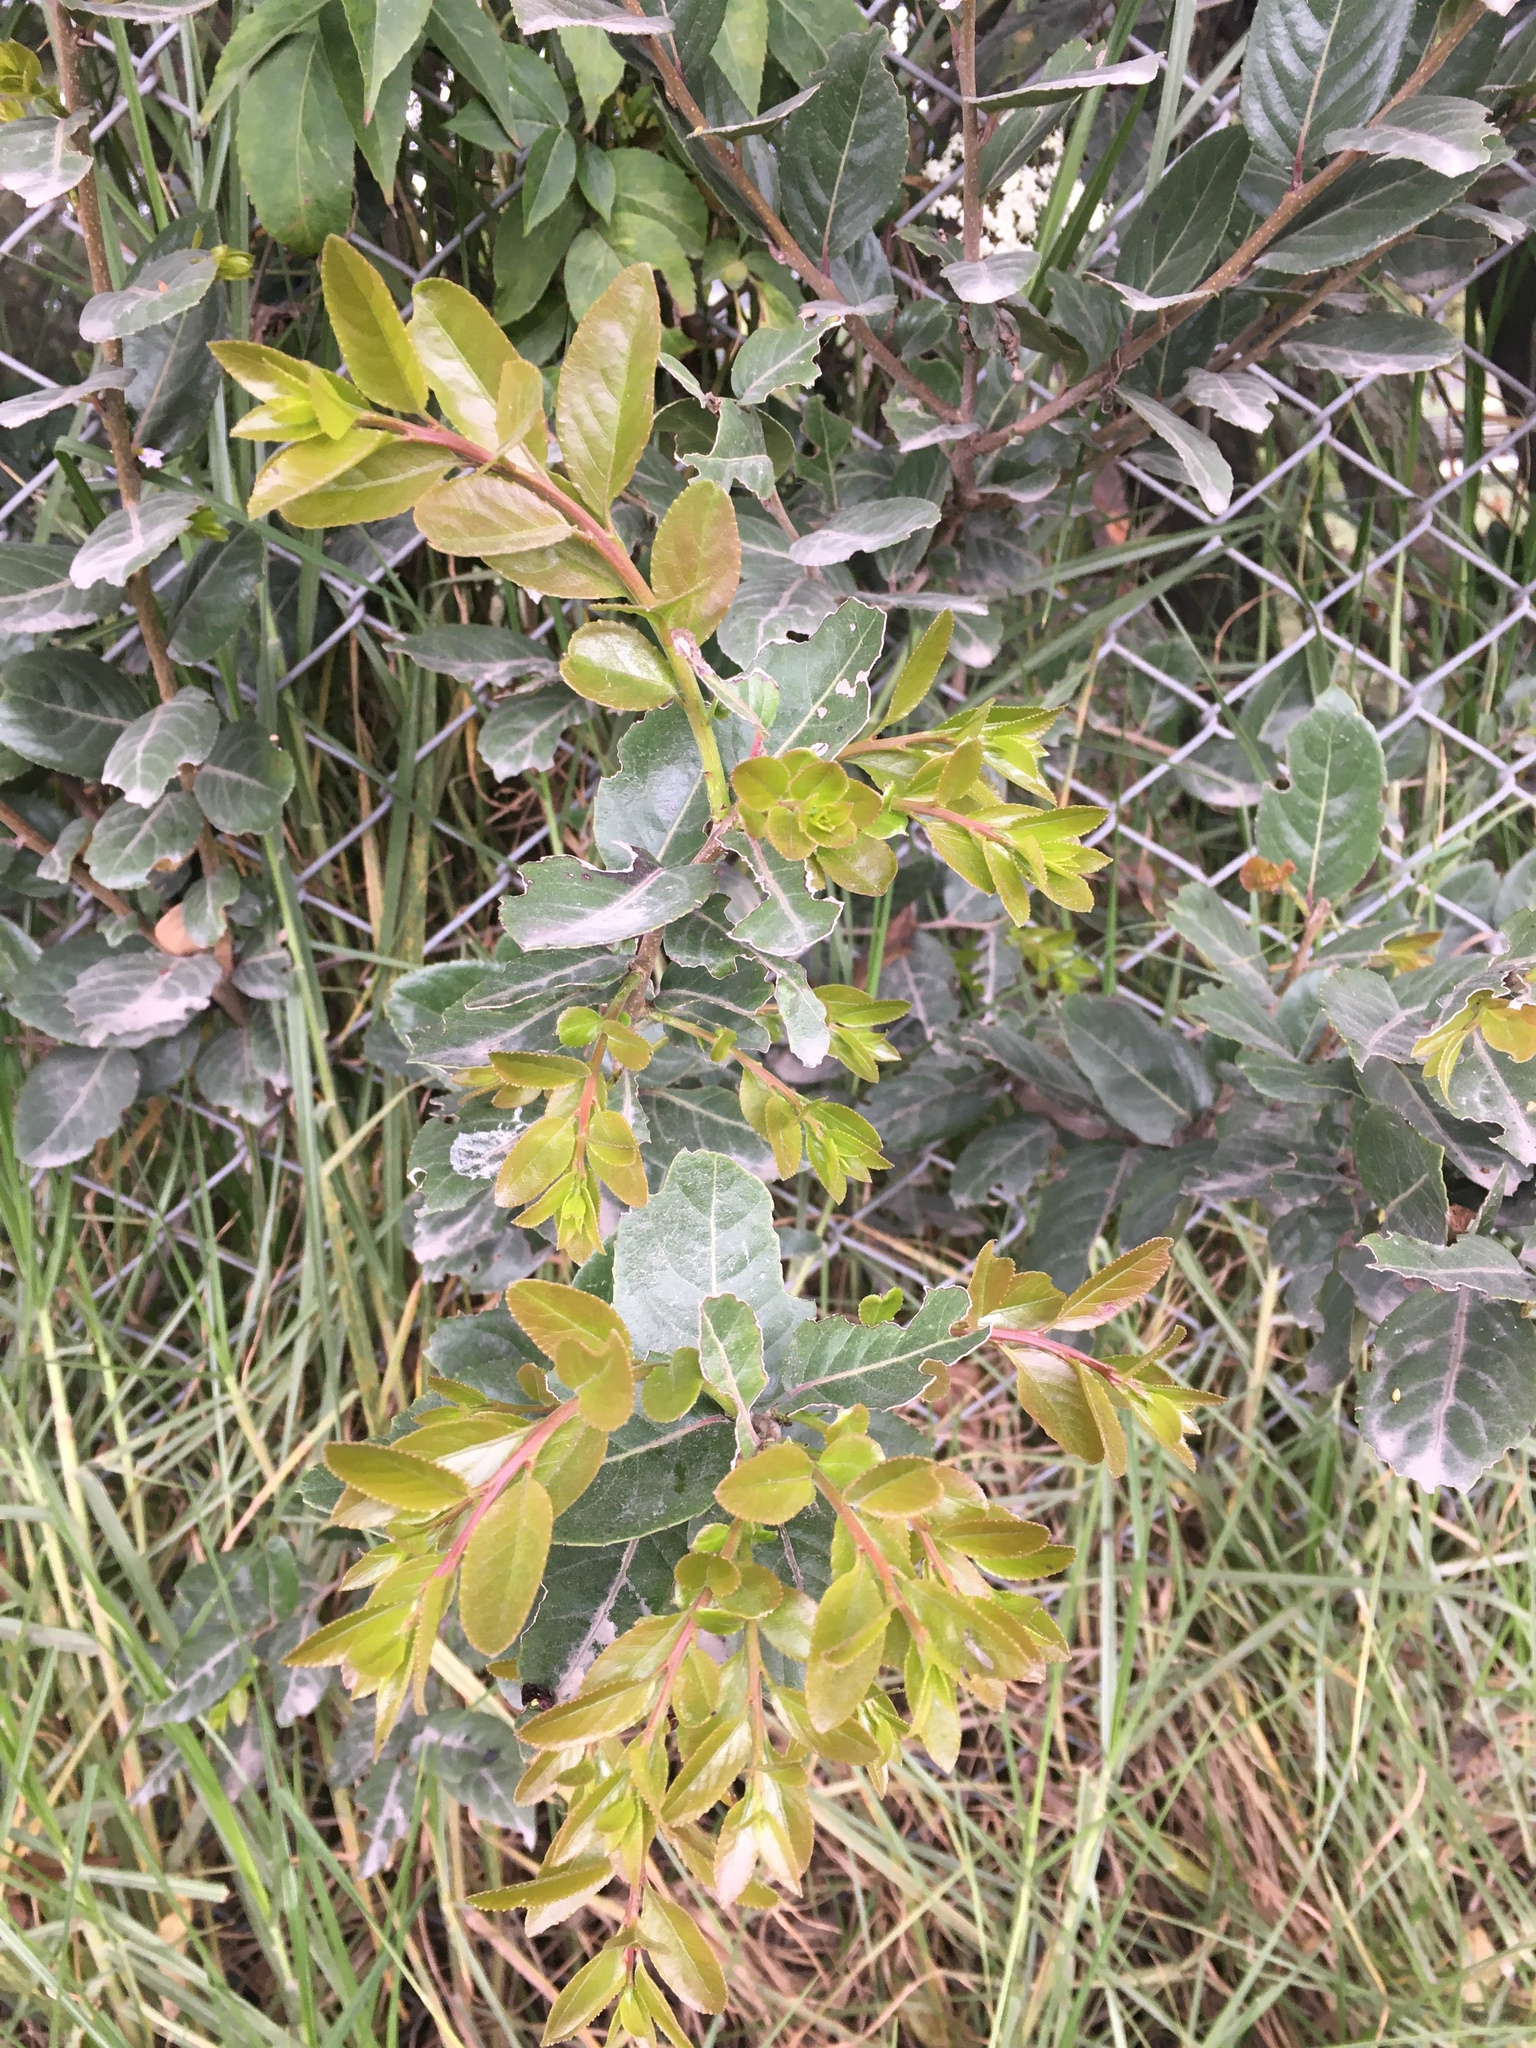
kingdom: Plantae
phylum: Tracheophyta
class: Magnoliopsida
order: Malpighiales
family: Salicaceae
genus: Xylosma
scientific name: Xylosma spiculifera
